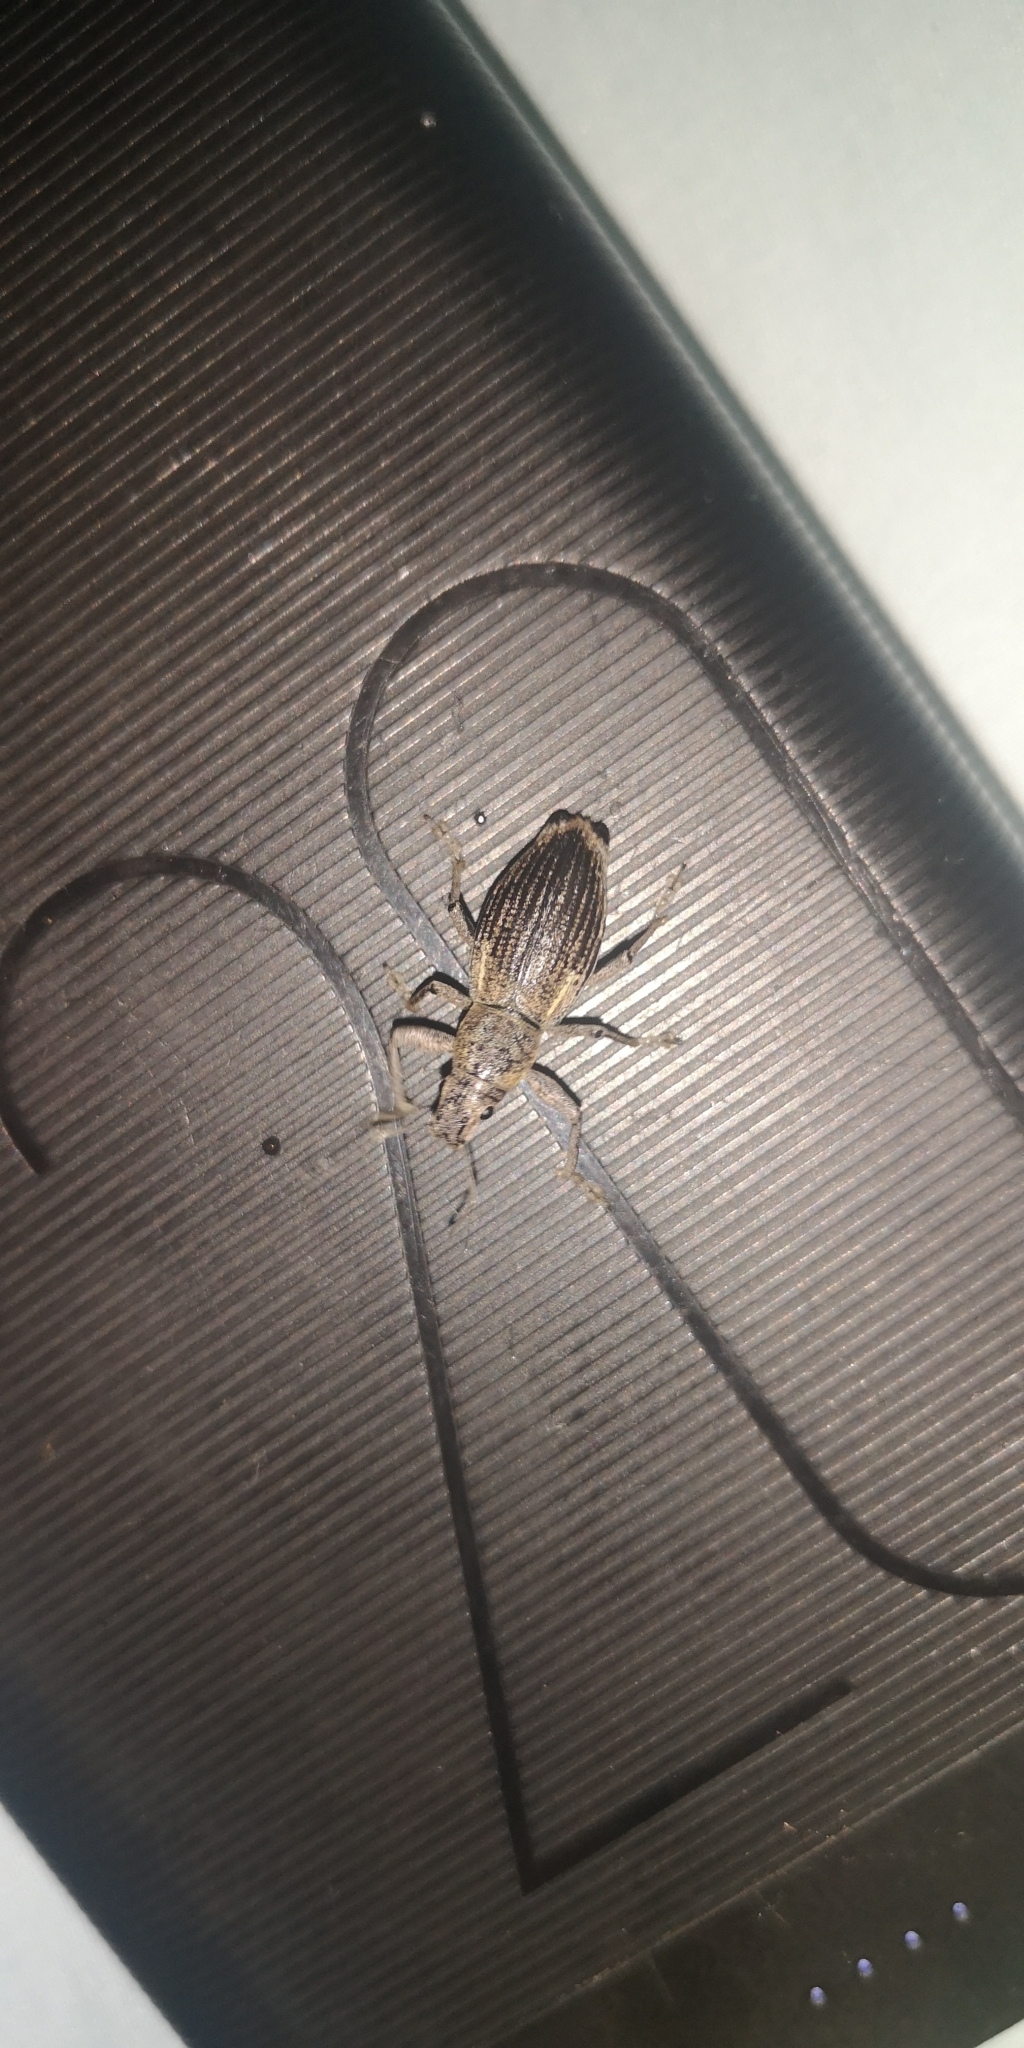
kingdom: Animalia
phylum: Arthropoda
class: Insecta
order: Coleoptera
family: Curculionidae
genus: Naupactus
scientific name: Naupactus xanthographus
